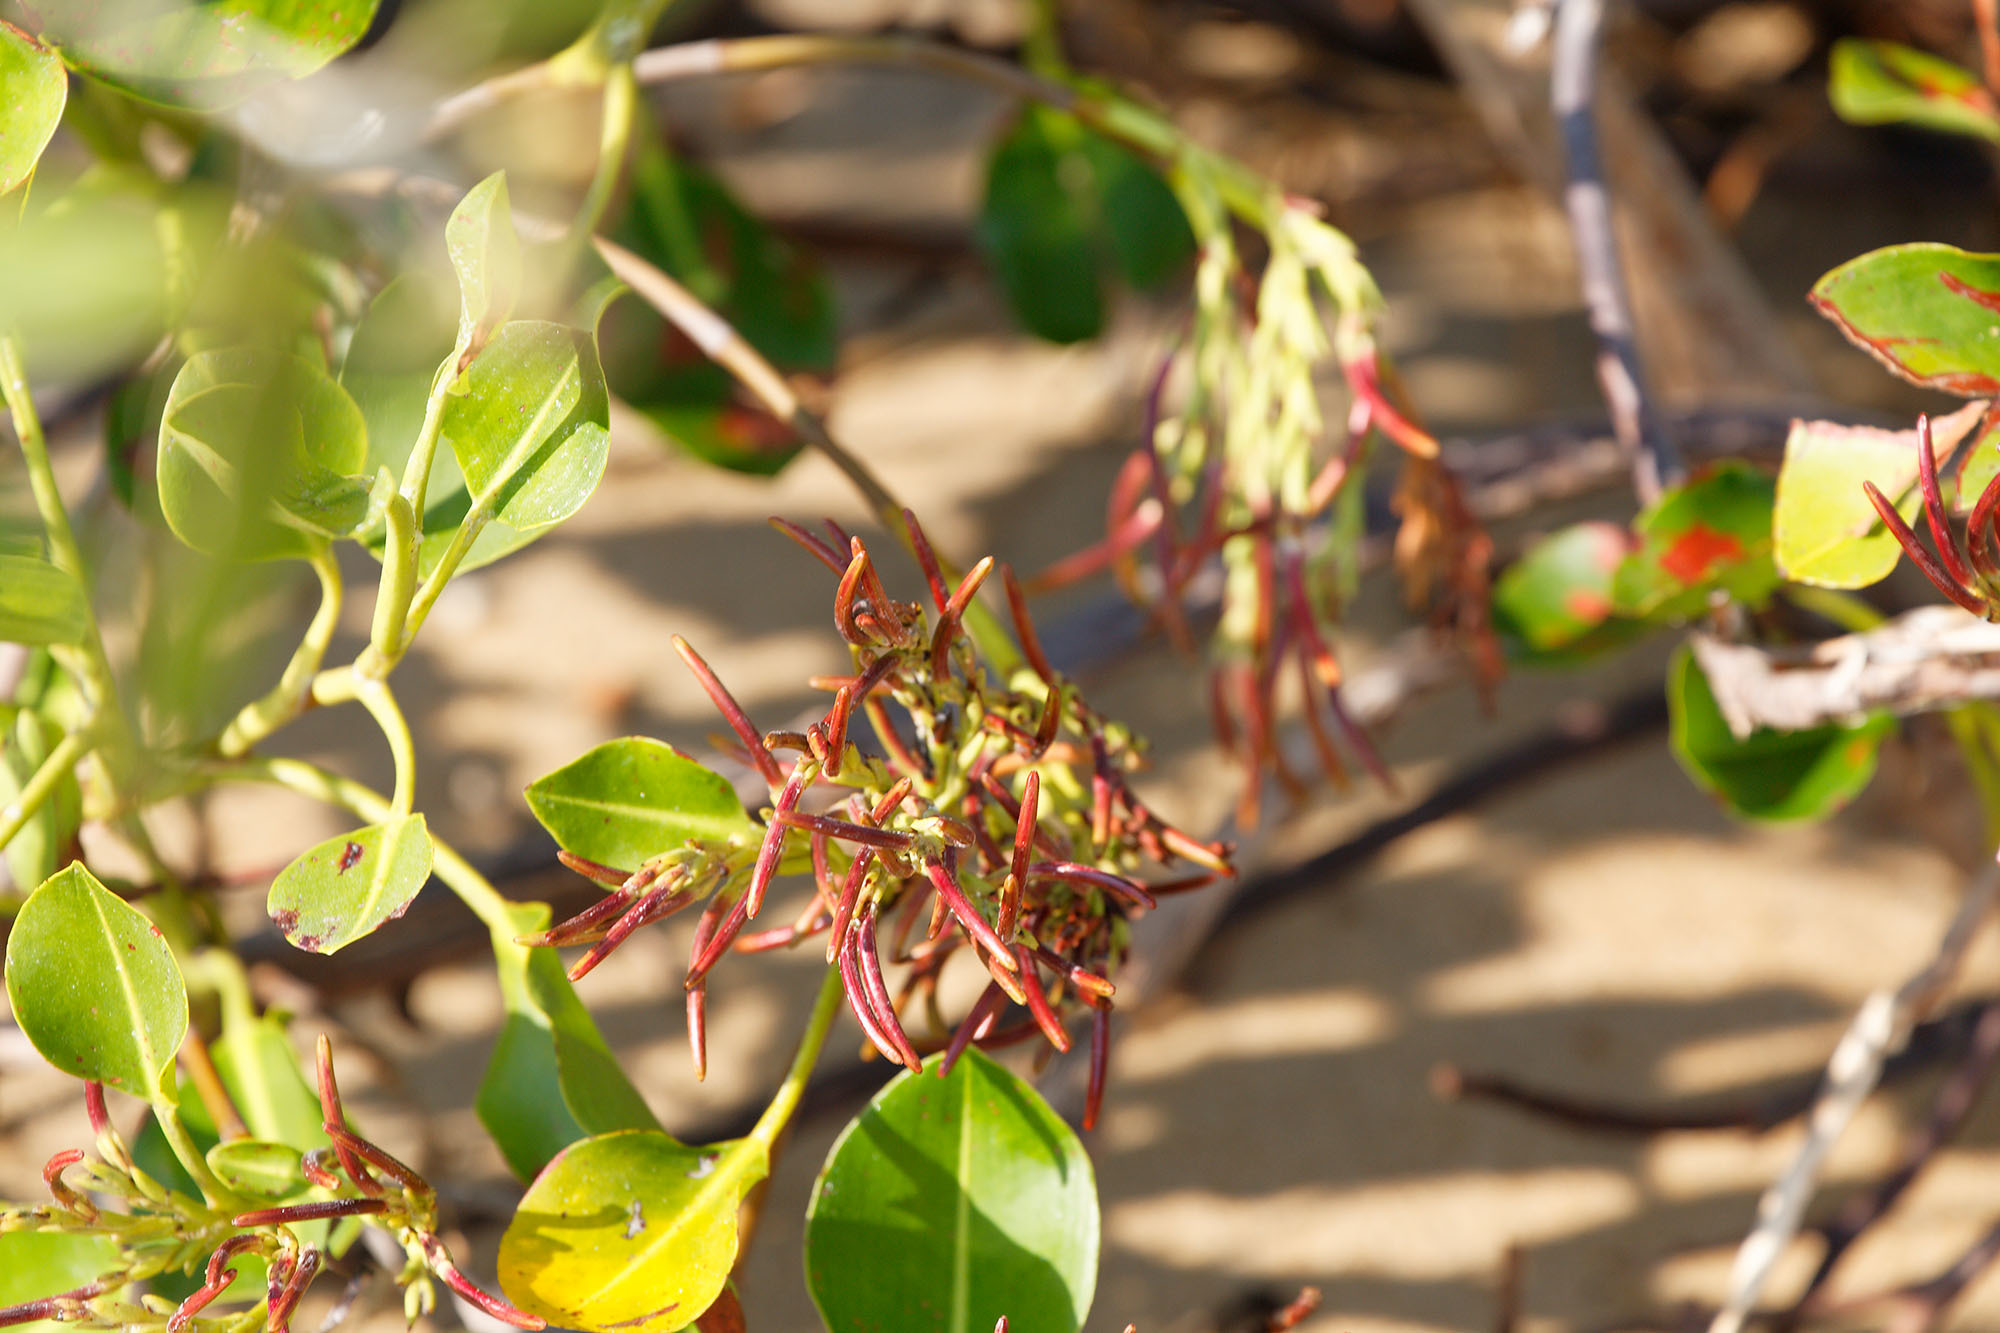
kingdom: Plantae
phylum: Tracheophyta
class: Magnoliopsida
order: Caryophyllales
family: Plumbaginaceae
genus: Aegialitis
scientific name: Aegialitis annulata
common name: Club mangrove
